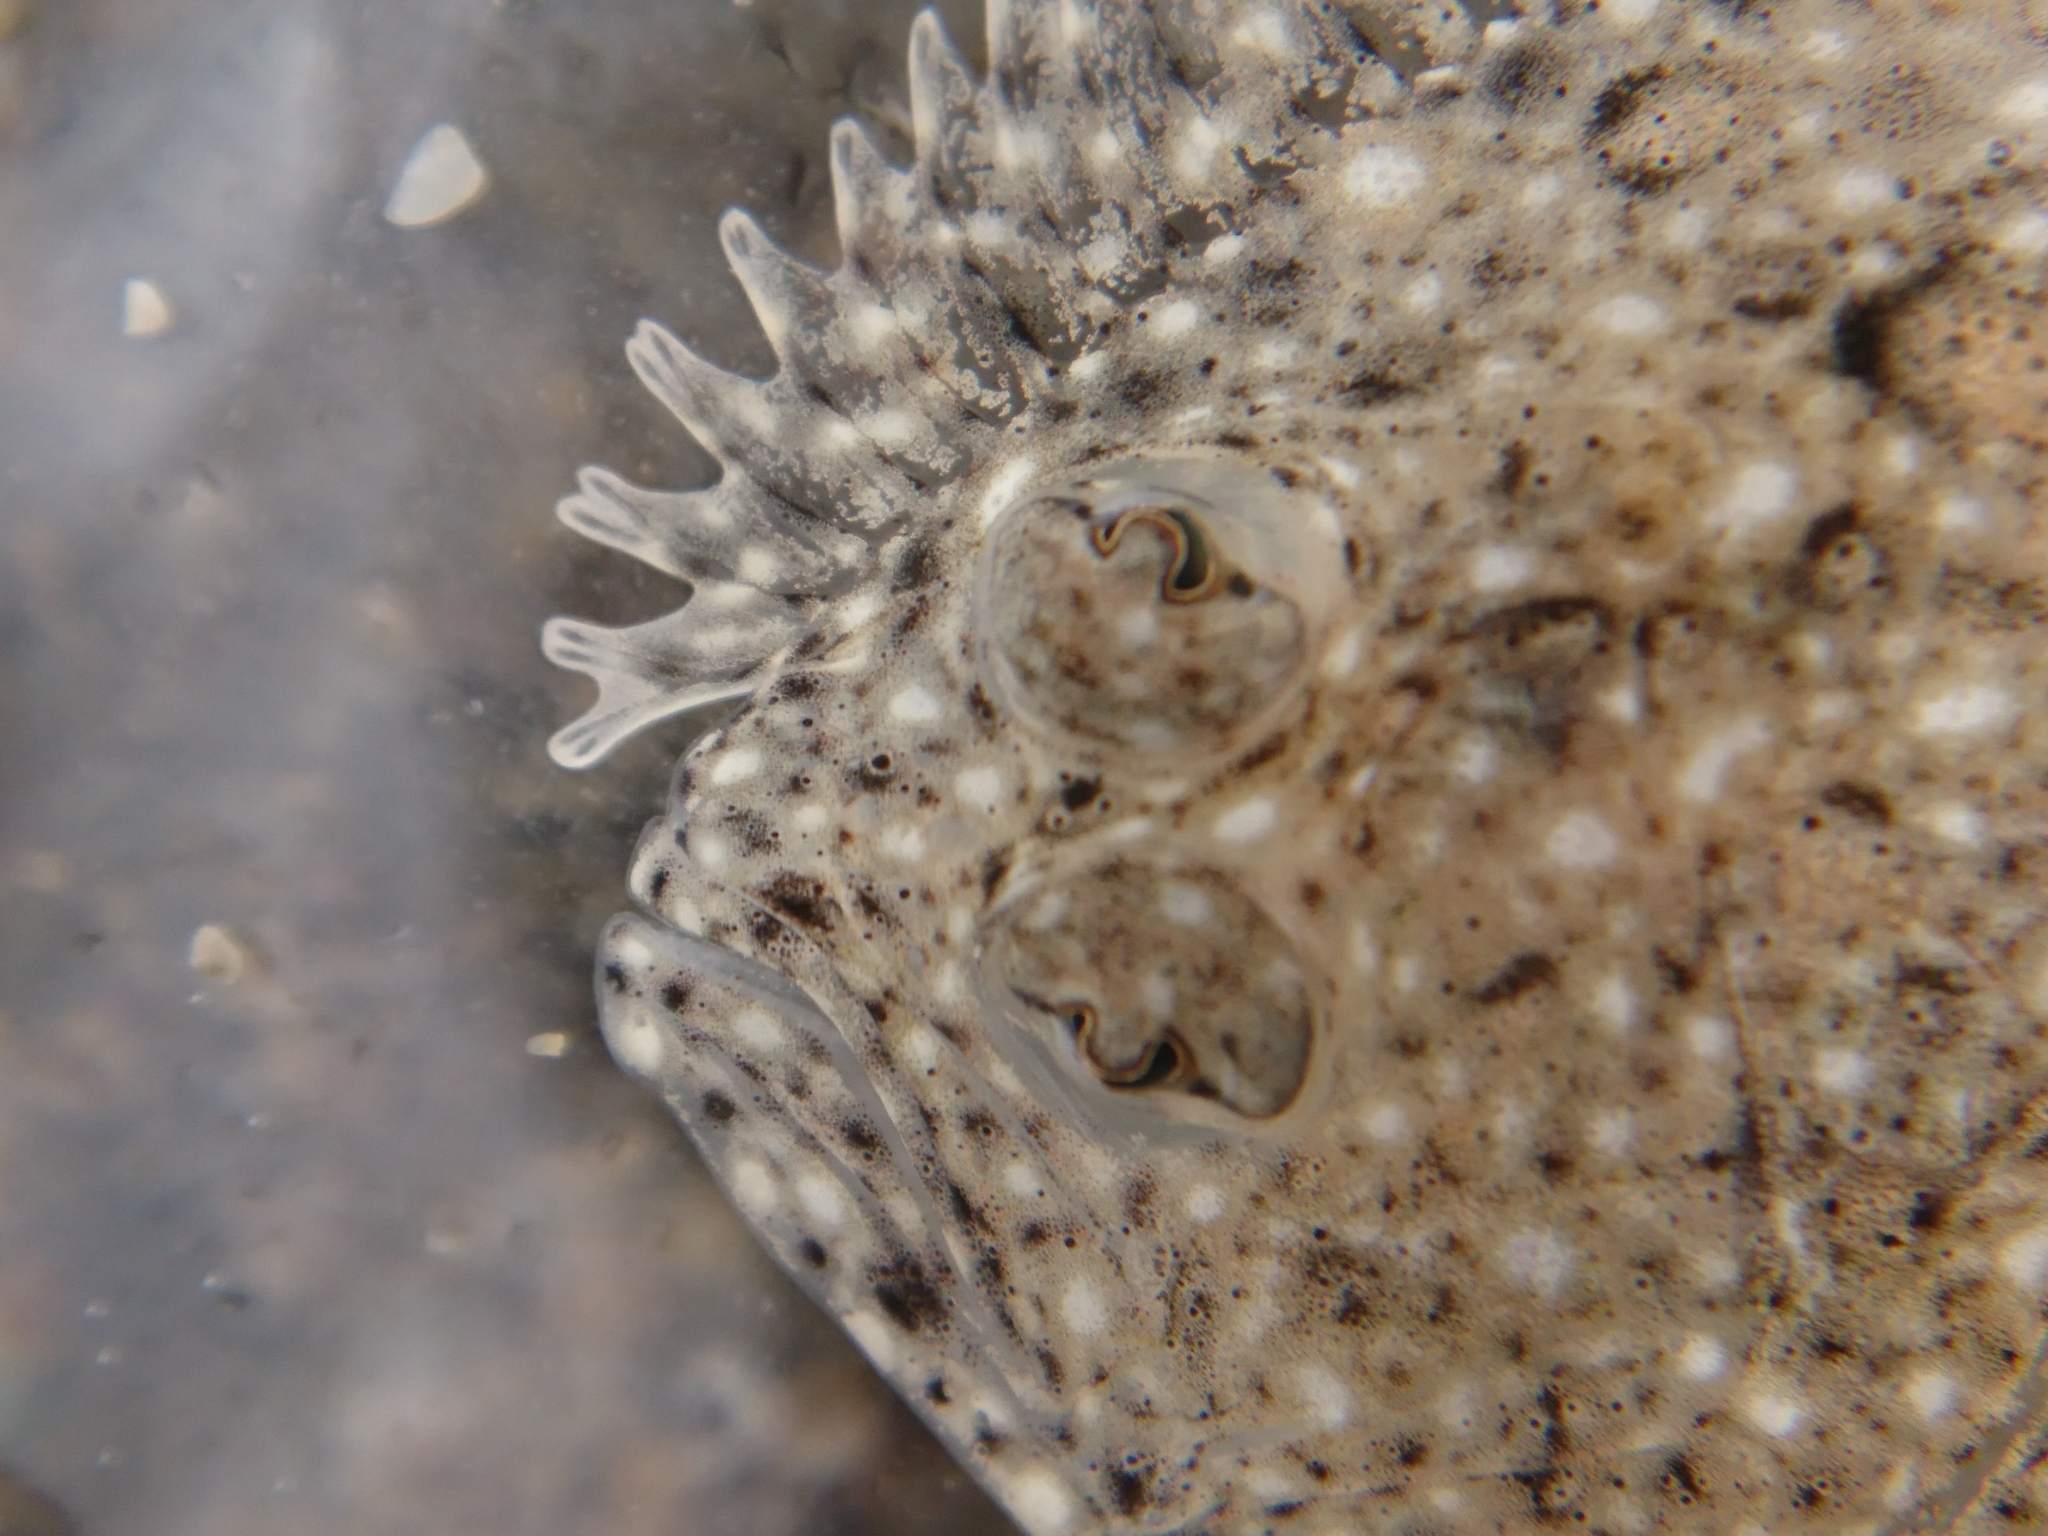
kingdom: Animalia
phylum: Chordata
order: Pleuronectiformes
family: Scophthalmidae
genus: Scophthalmus
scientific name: Scophthalmus rhombus
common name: Brill
